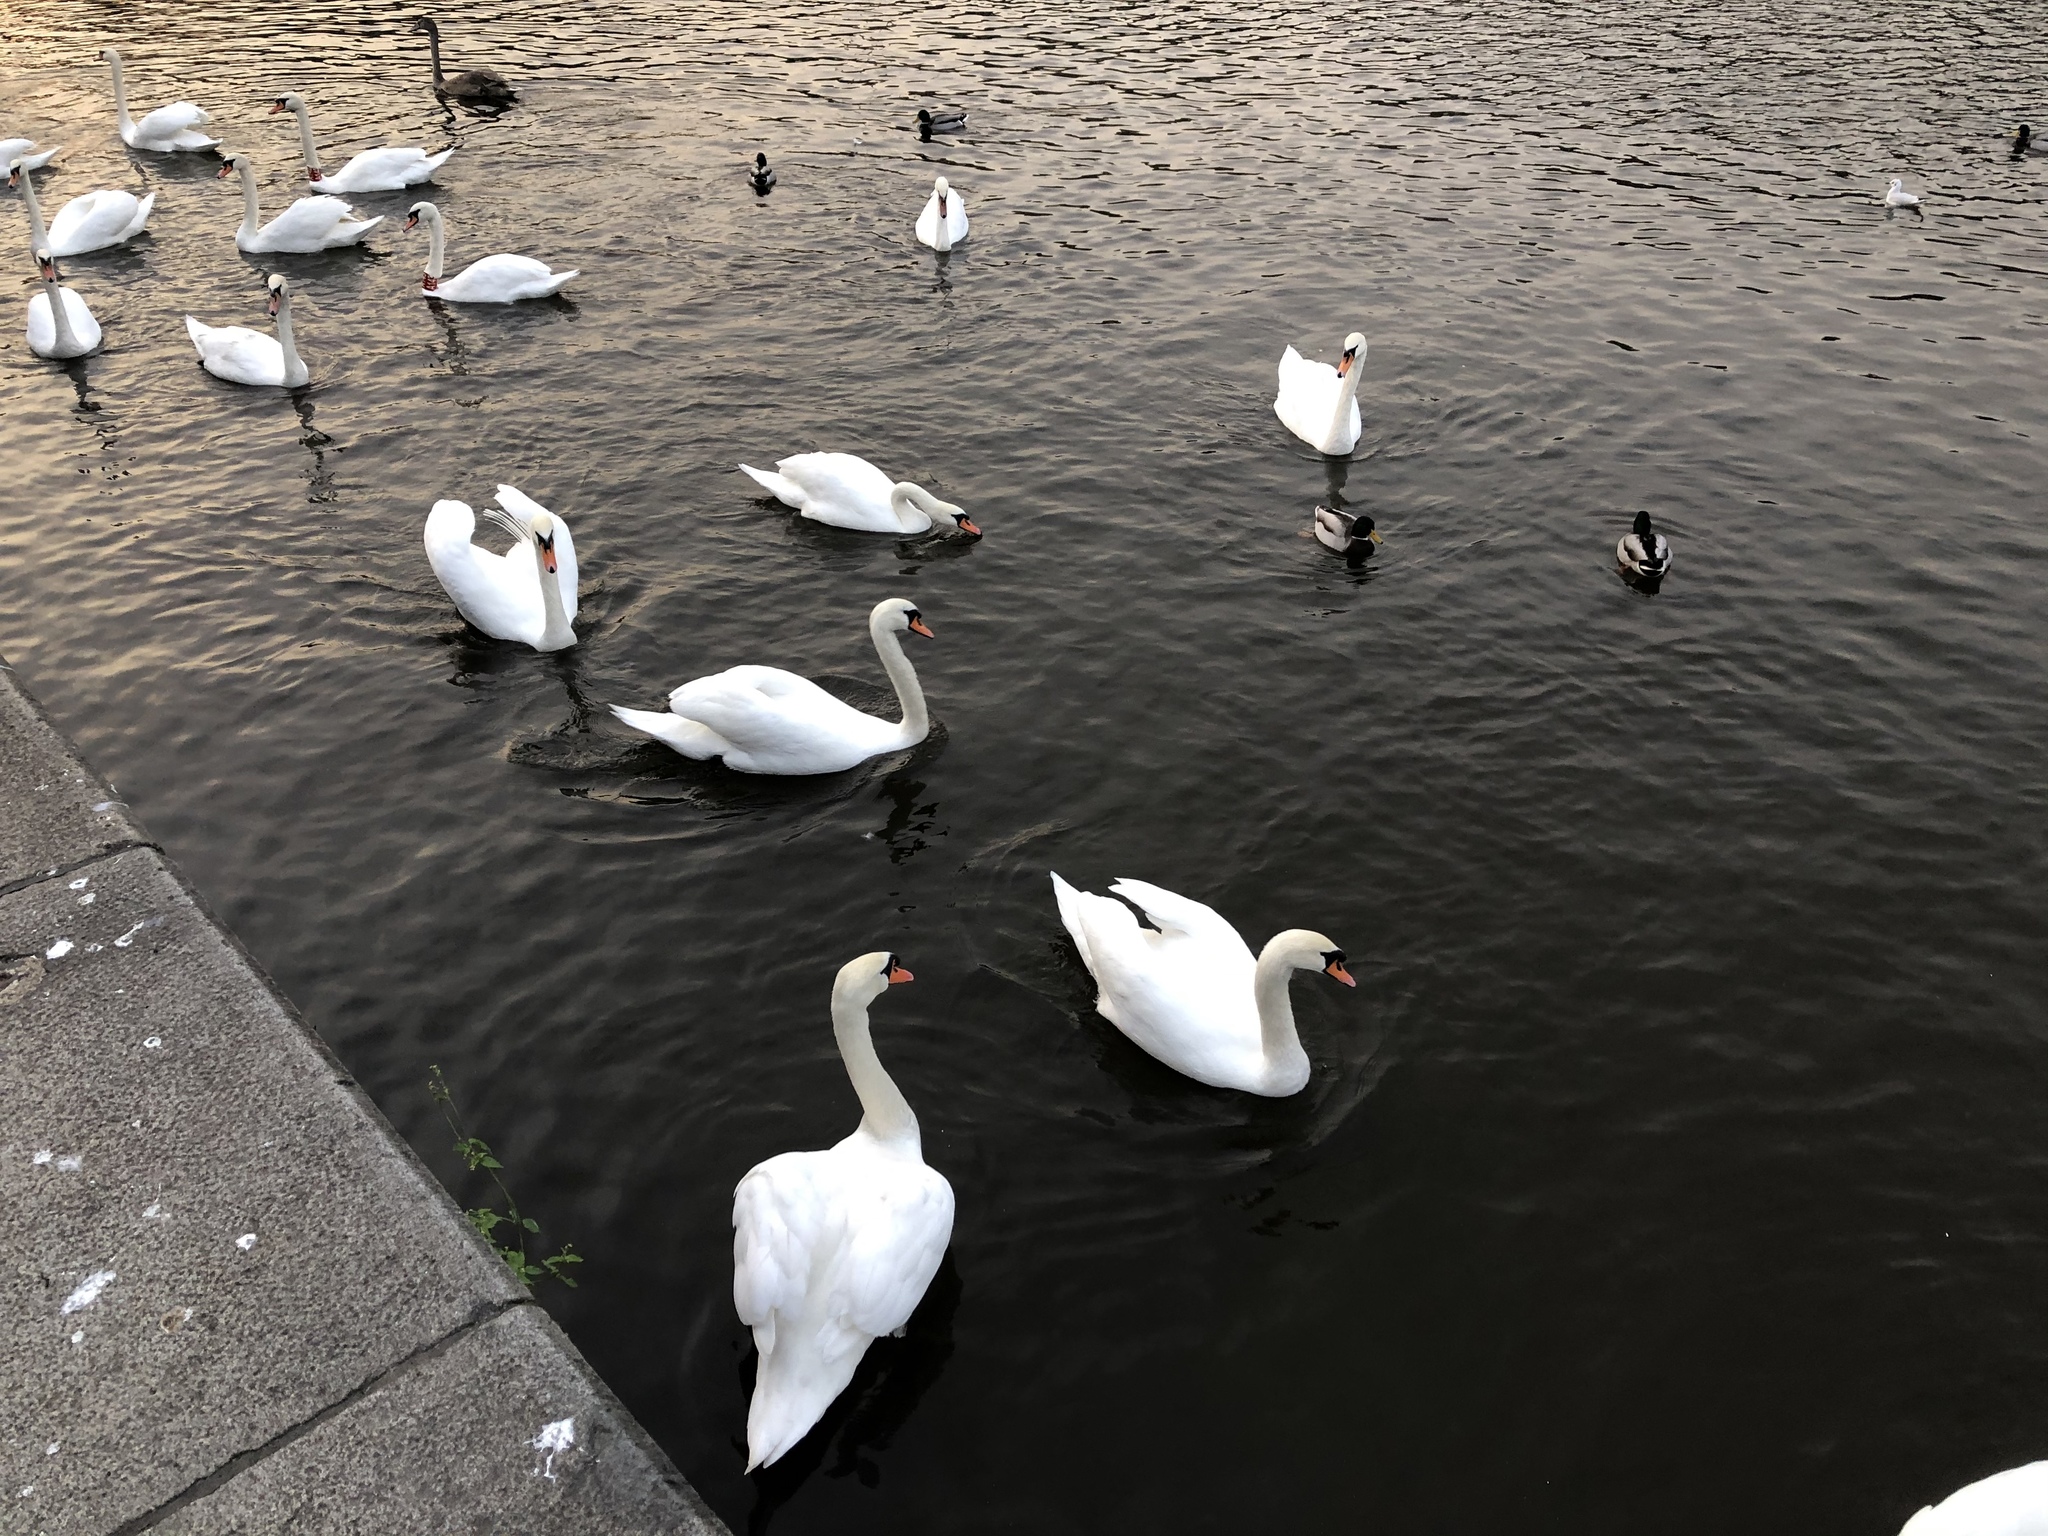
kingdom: Animalia
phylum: Chordata
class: Aves
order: Anseriformes
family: Anatidae
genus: Cygnus
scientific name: Cygnus olor
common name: Mute swan
